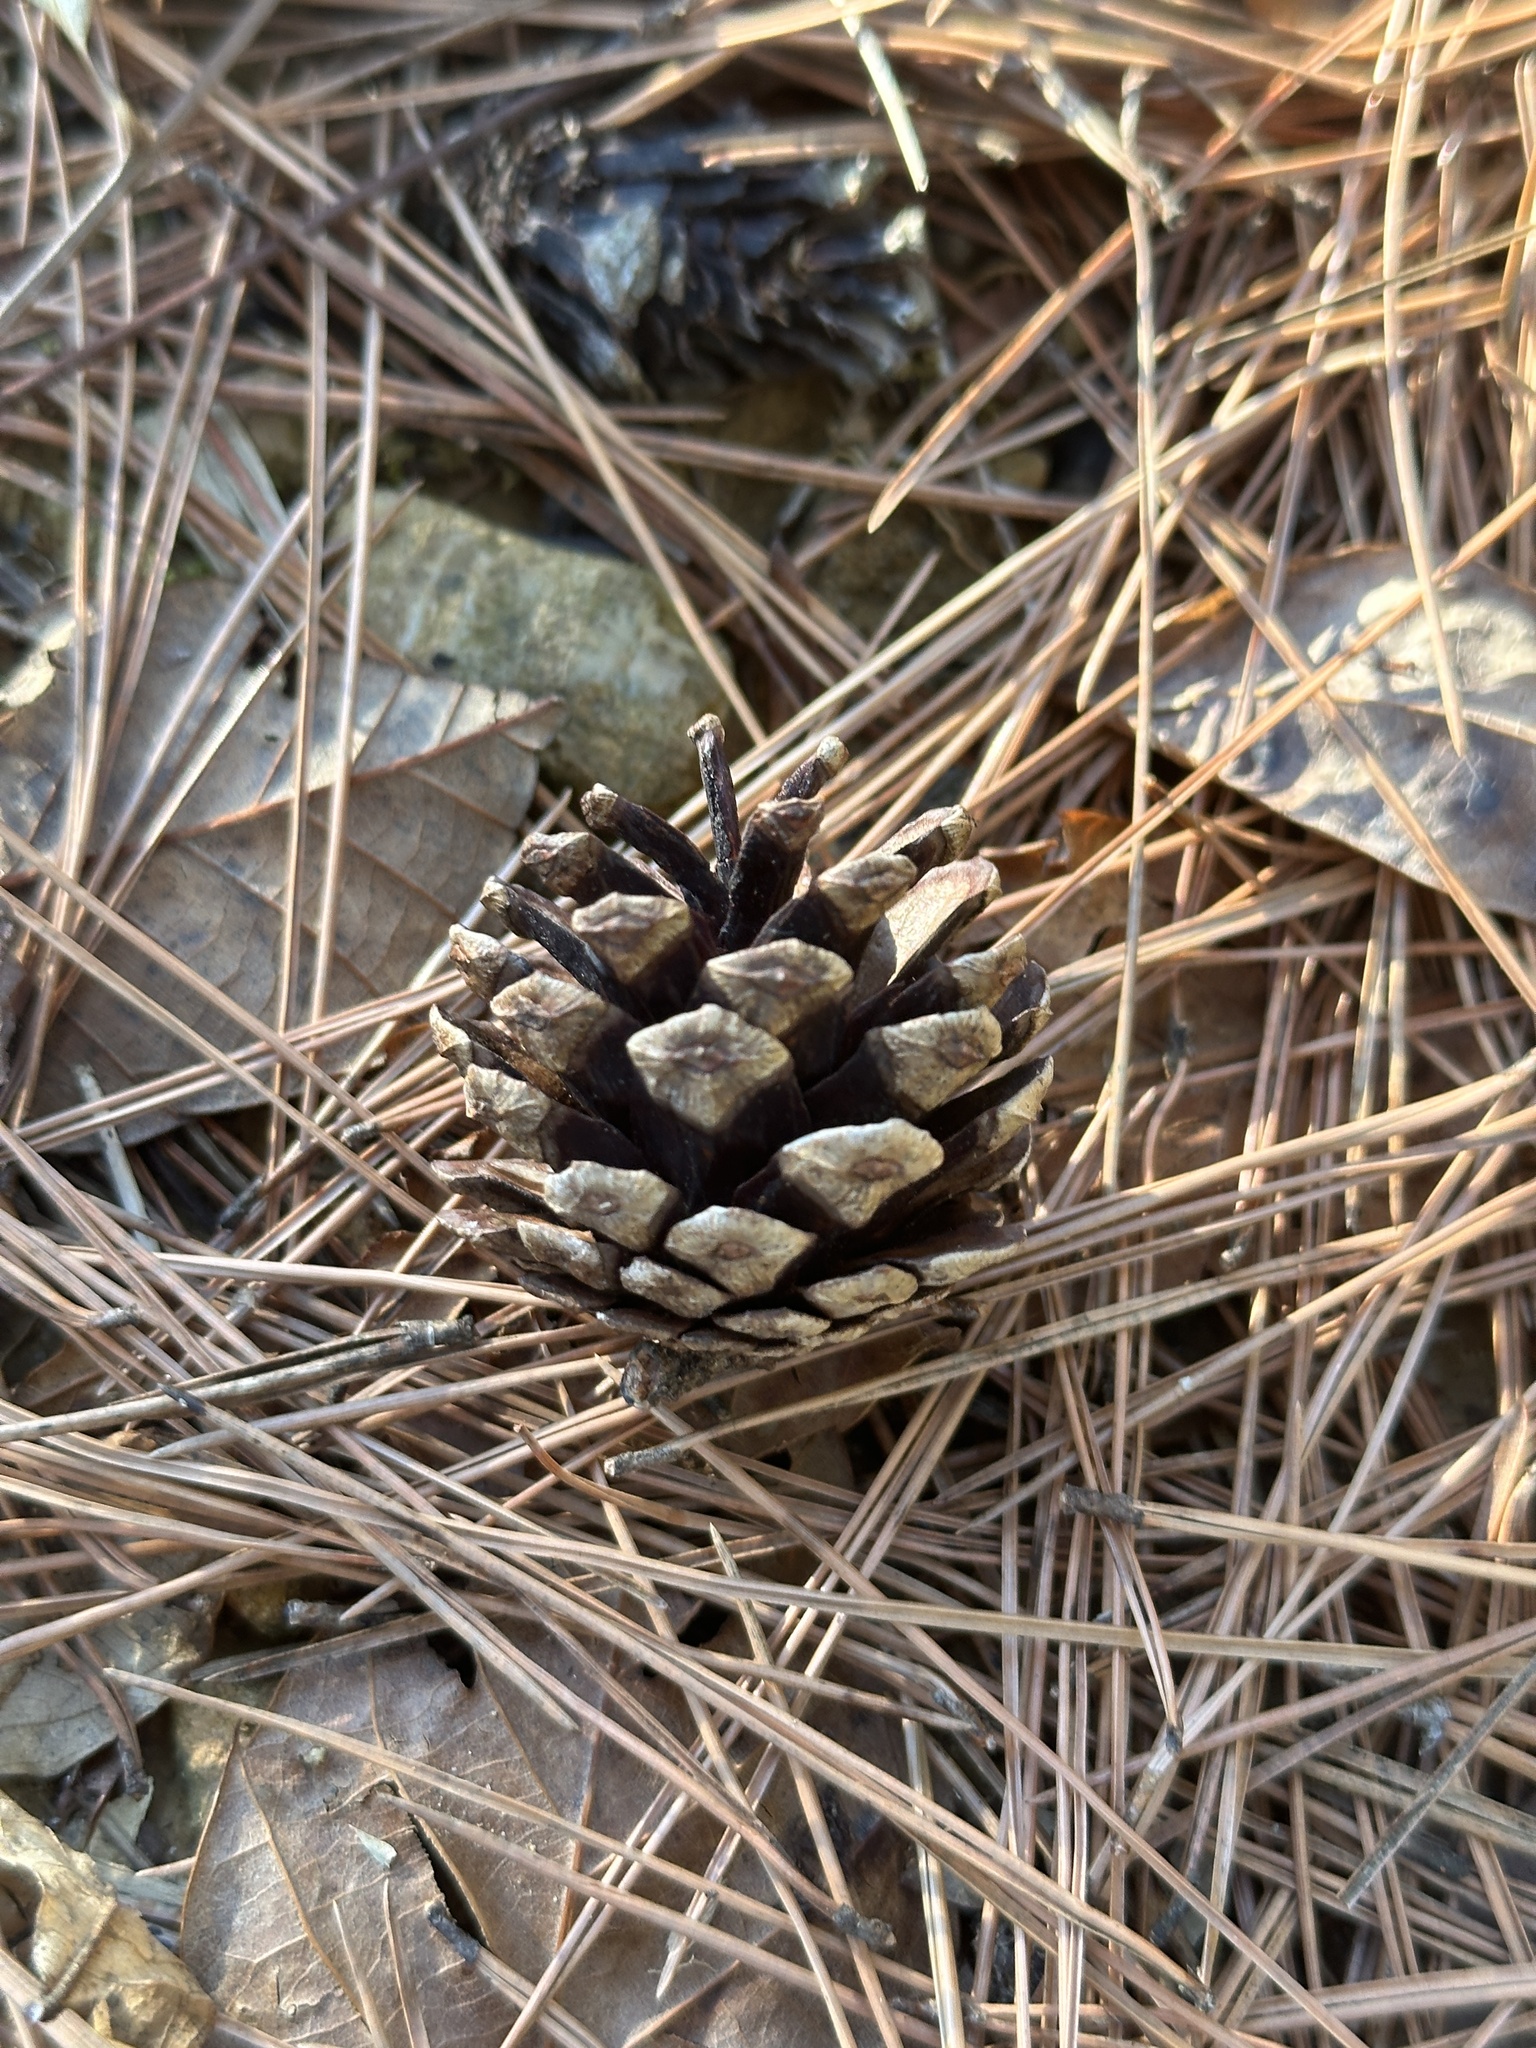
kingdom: Plantae
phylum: Tracheophyta
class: Pinopsida
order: Pinales
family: Pinaceae
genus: Pinus
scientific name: Pinus densiflora
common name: Japanese red pine
